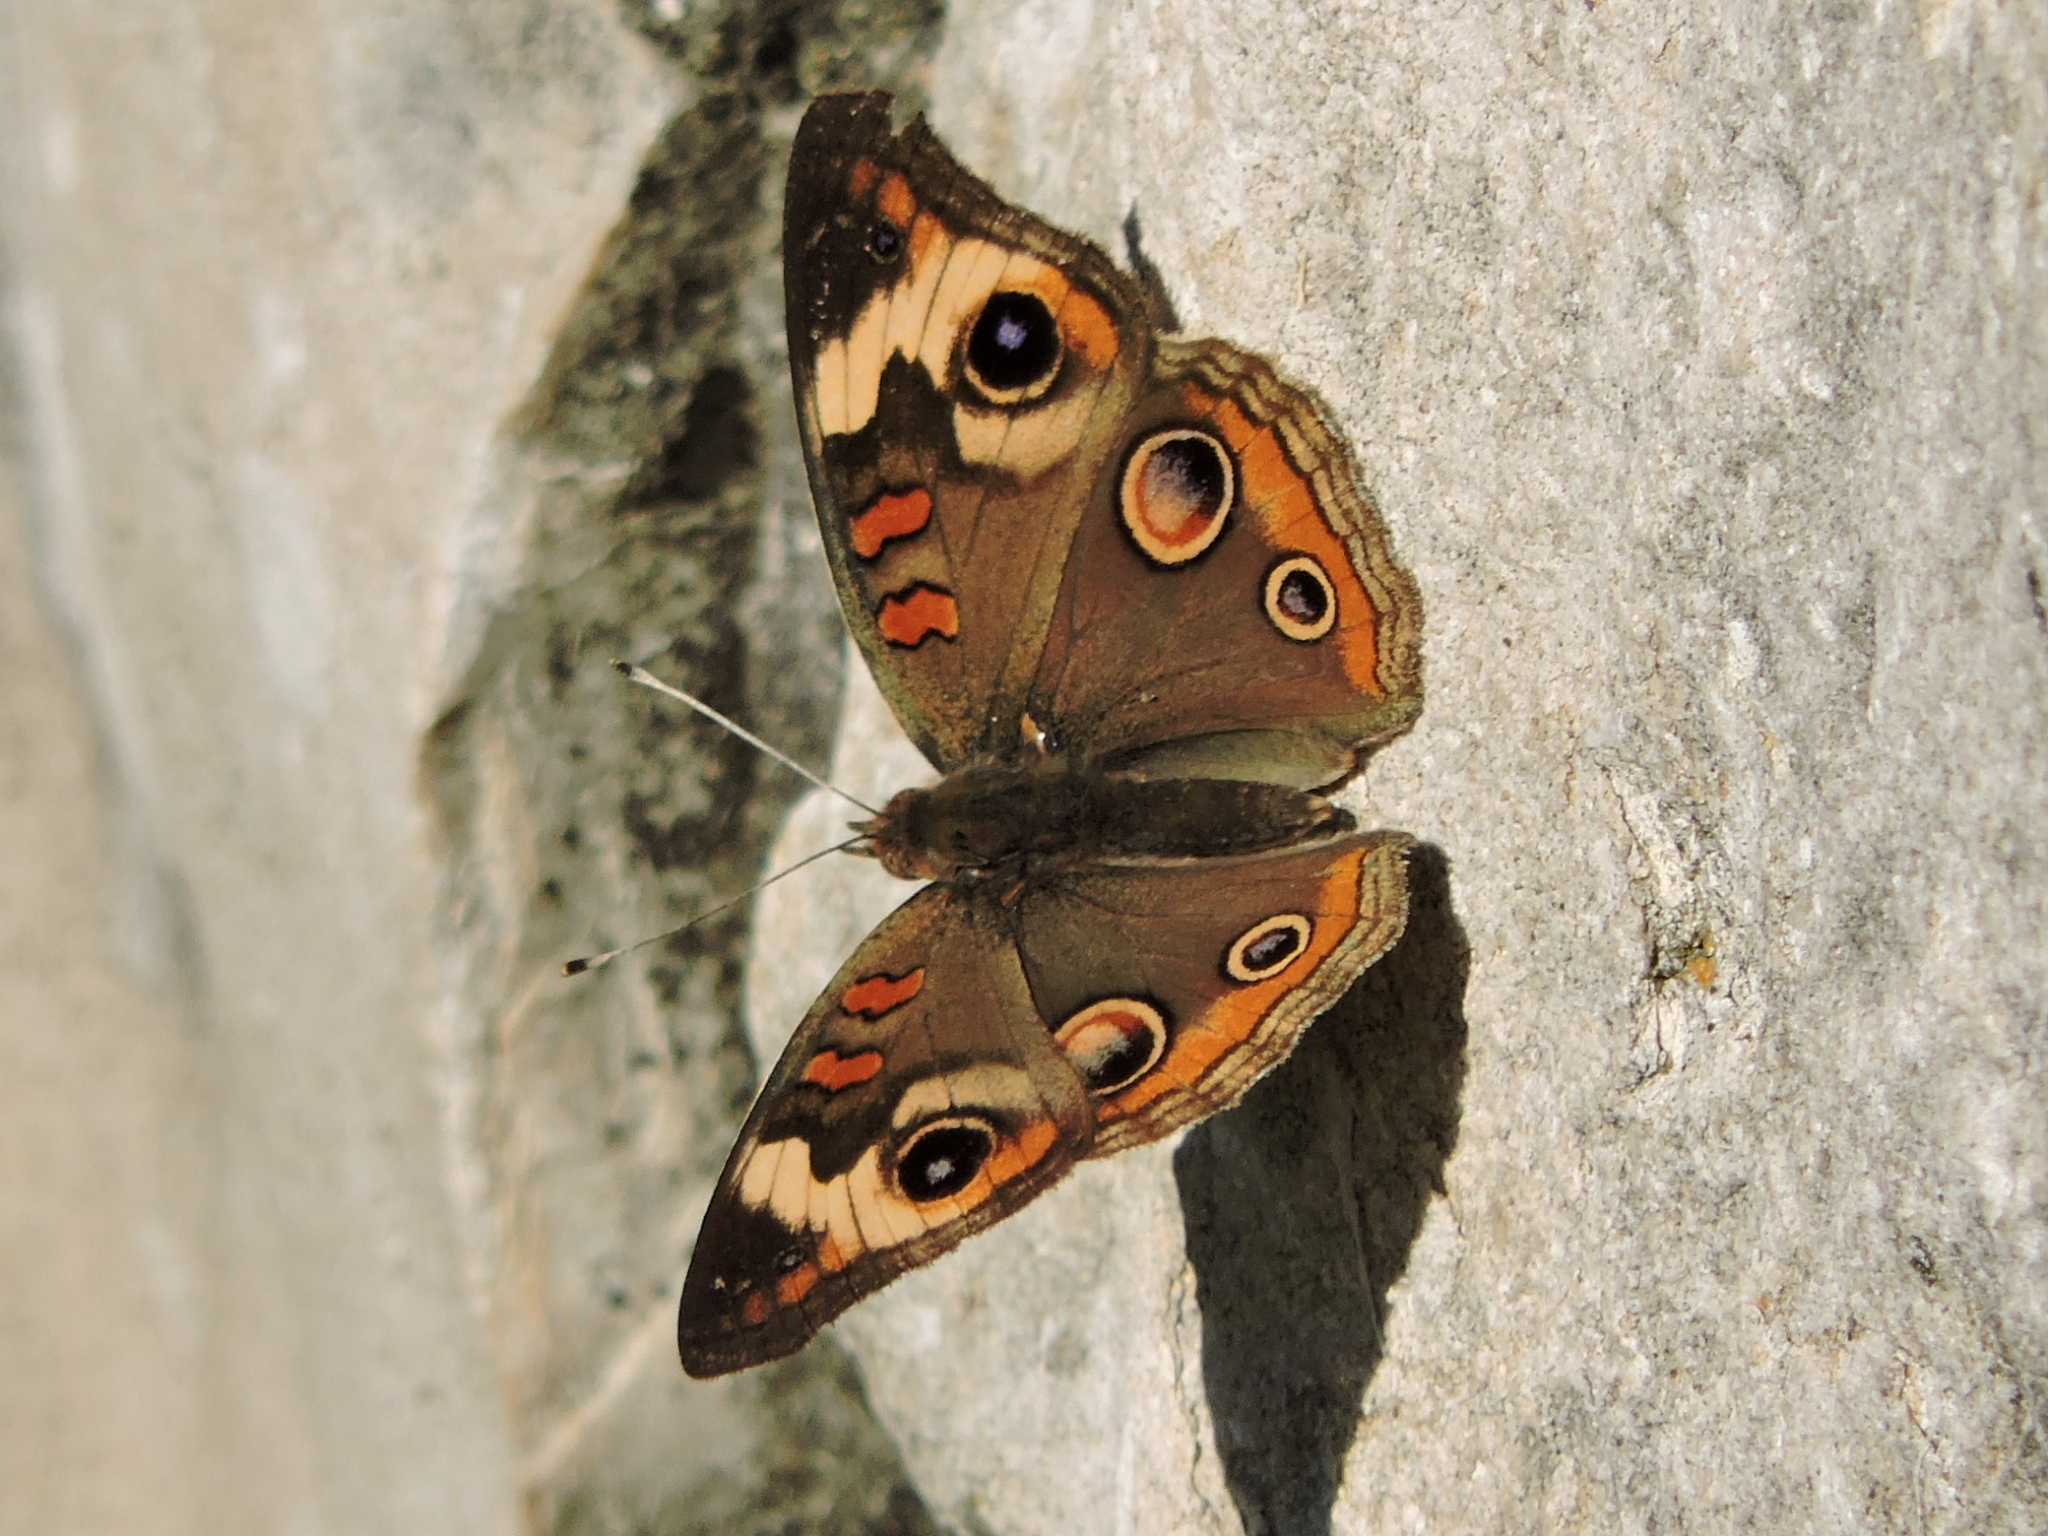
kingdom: Animalia
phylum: Arthropoda
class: Insecta
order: Lepidoptera
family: Nymphalidae
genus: Junonia
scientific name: Junonia coenia
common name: Common buckeye
